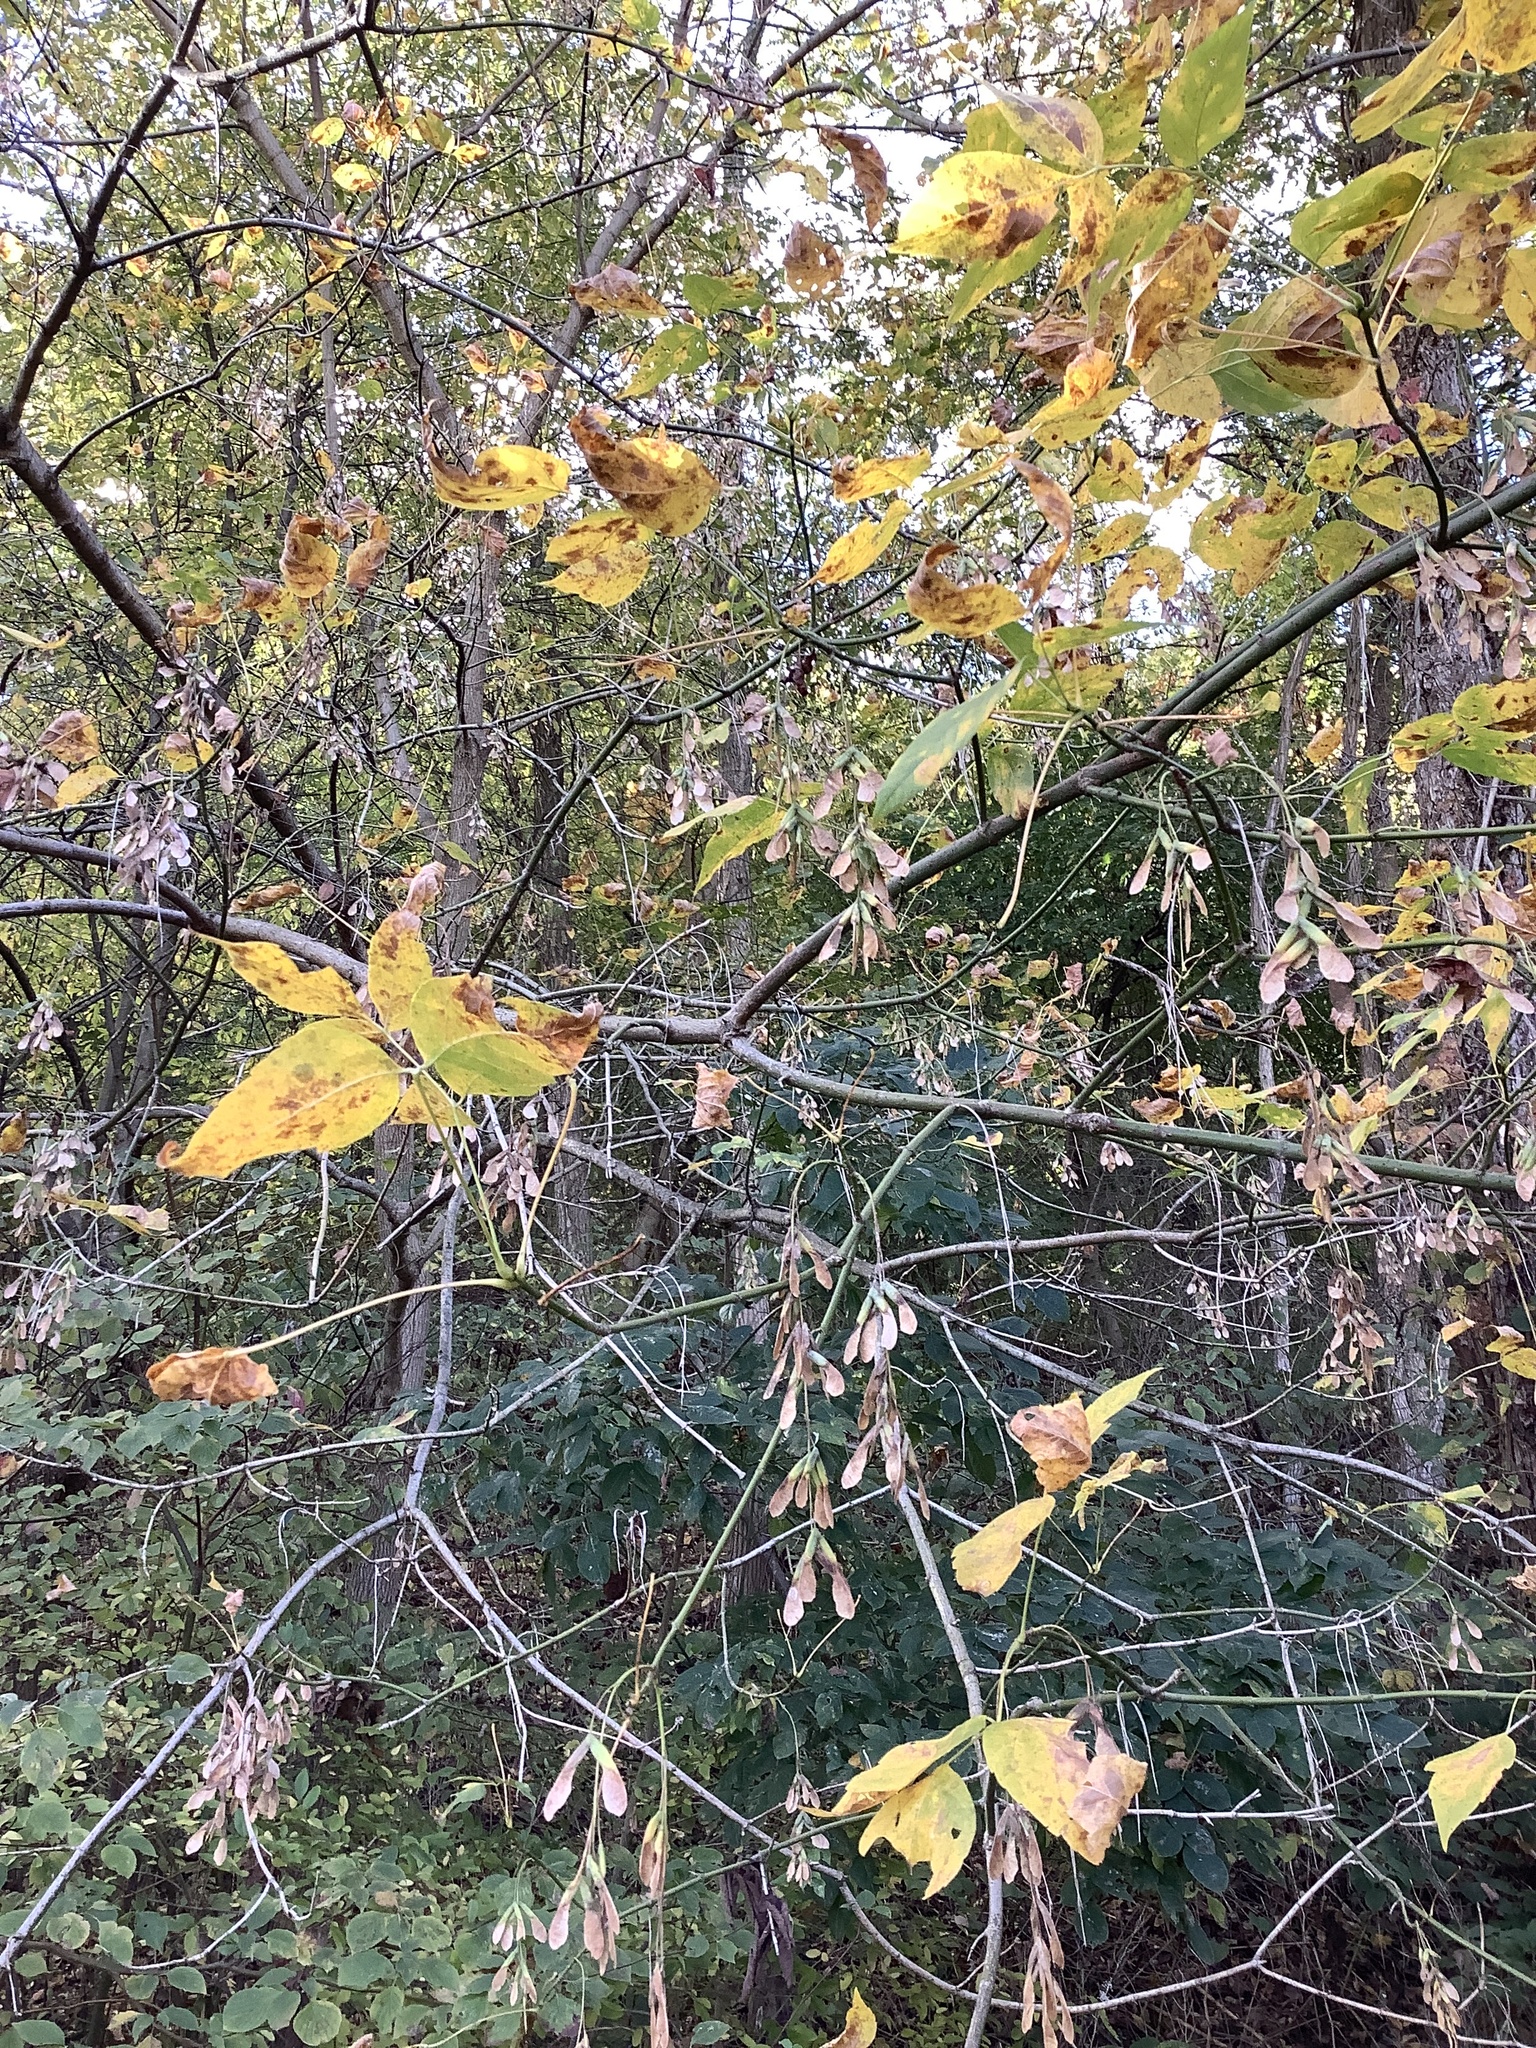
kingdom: Plantae
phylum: Tracheophyta
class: Magnoliopsida
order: Sapindales
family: Sapindaceae
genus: Acer
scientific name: Acer negundo
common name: Ashleaf maple
